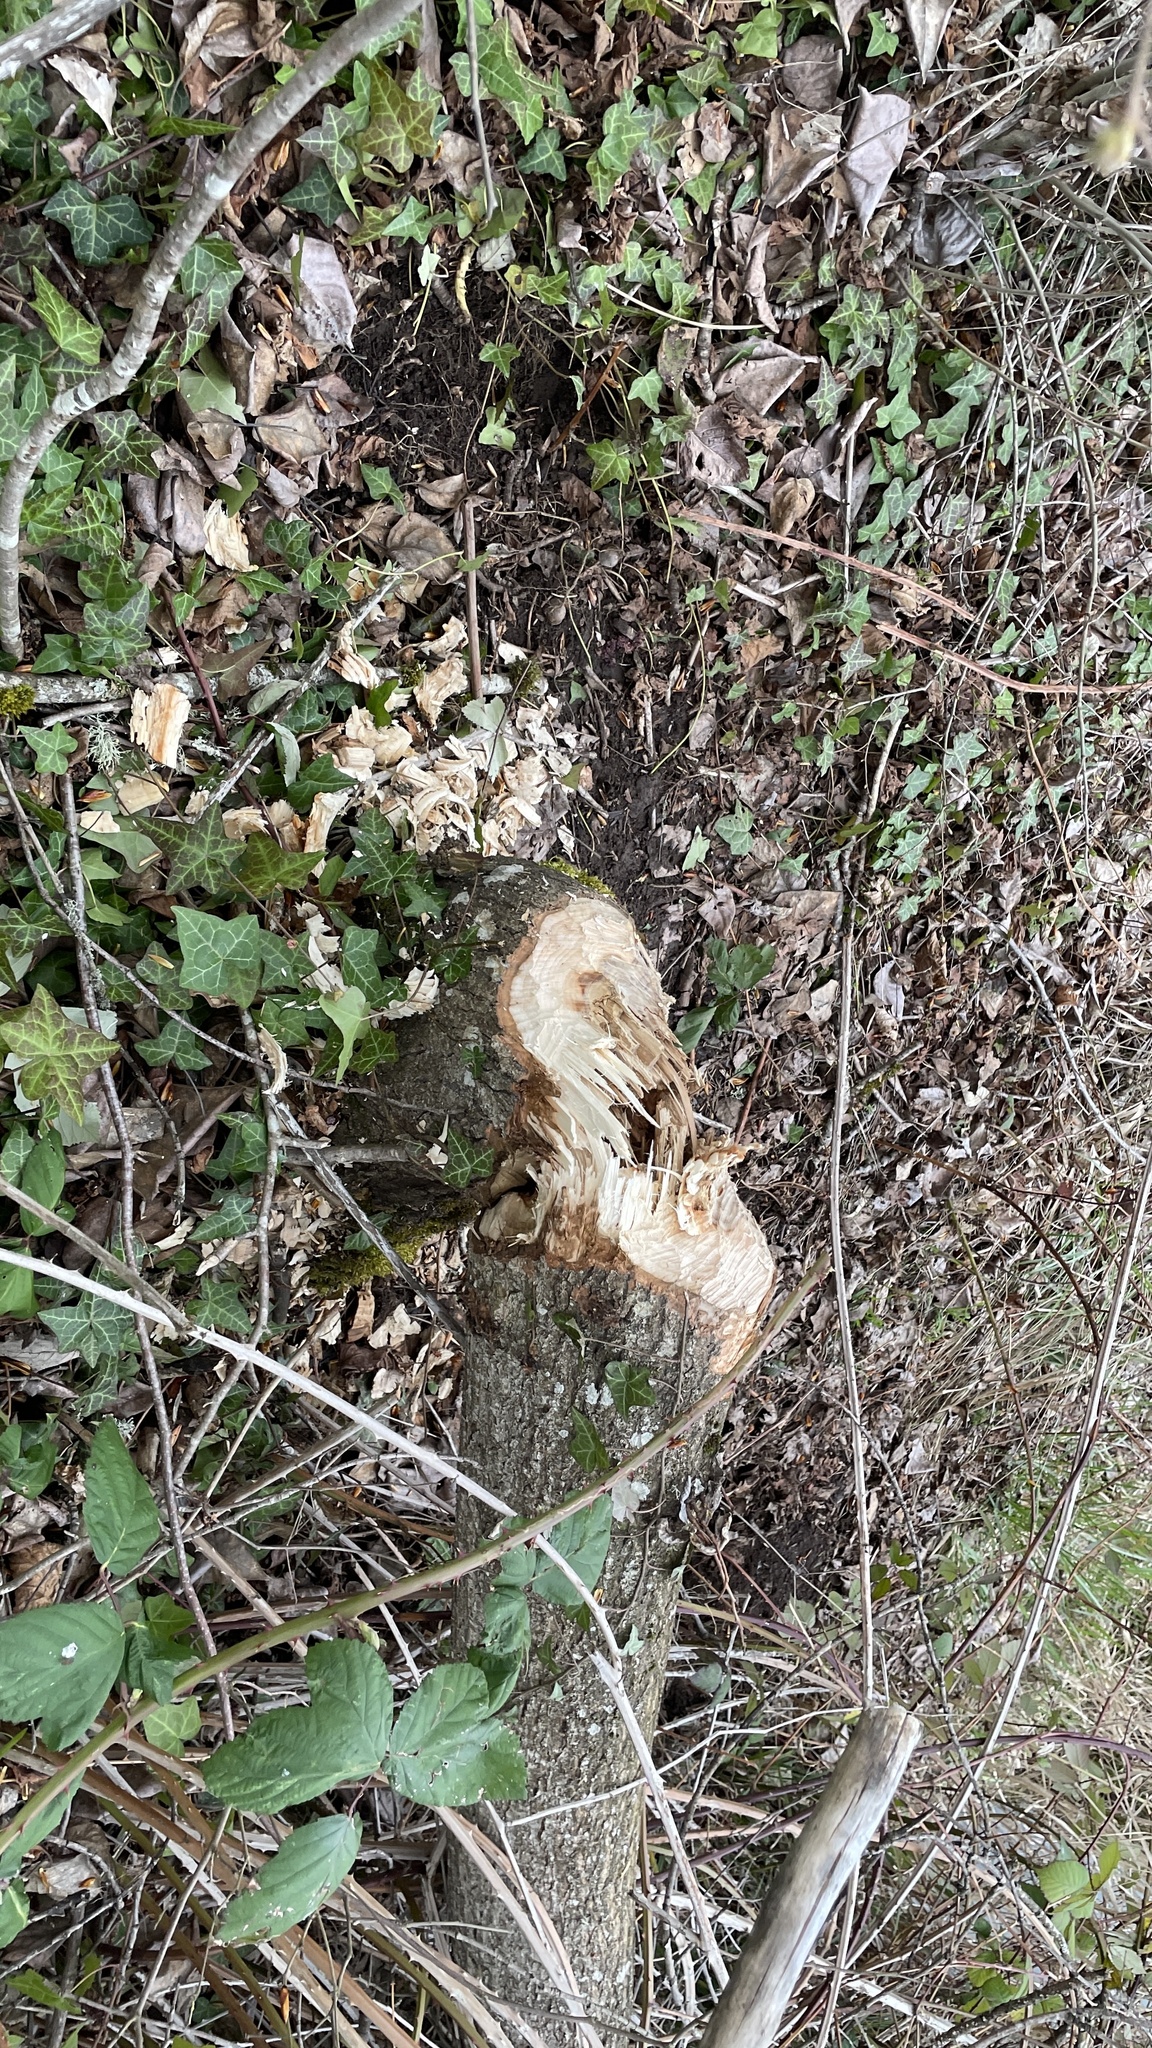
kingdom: Animalia
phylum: Chordata
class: Mammalia
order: Rodentia
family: Castoridae
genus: Castor
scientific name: Castor canadensis
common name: American beaver
